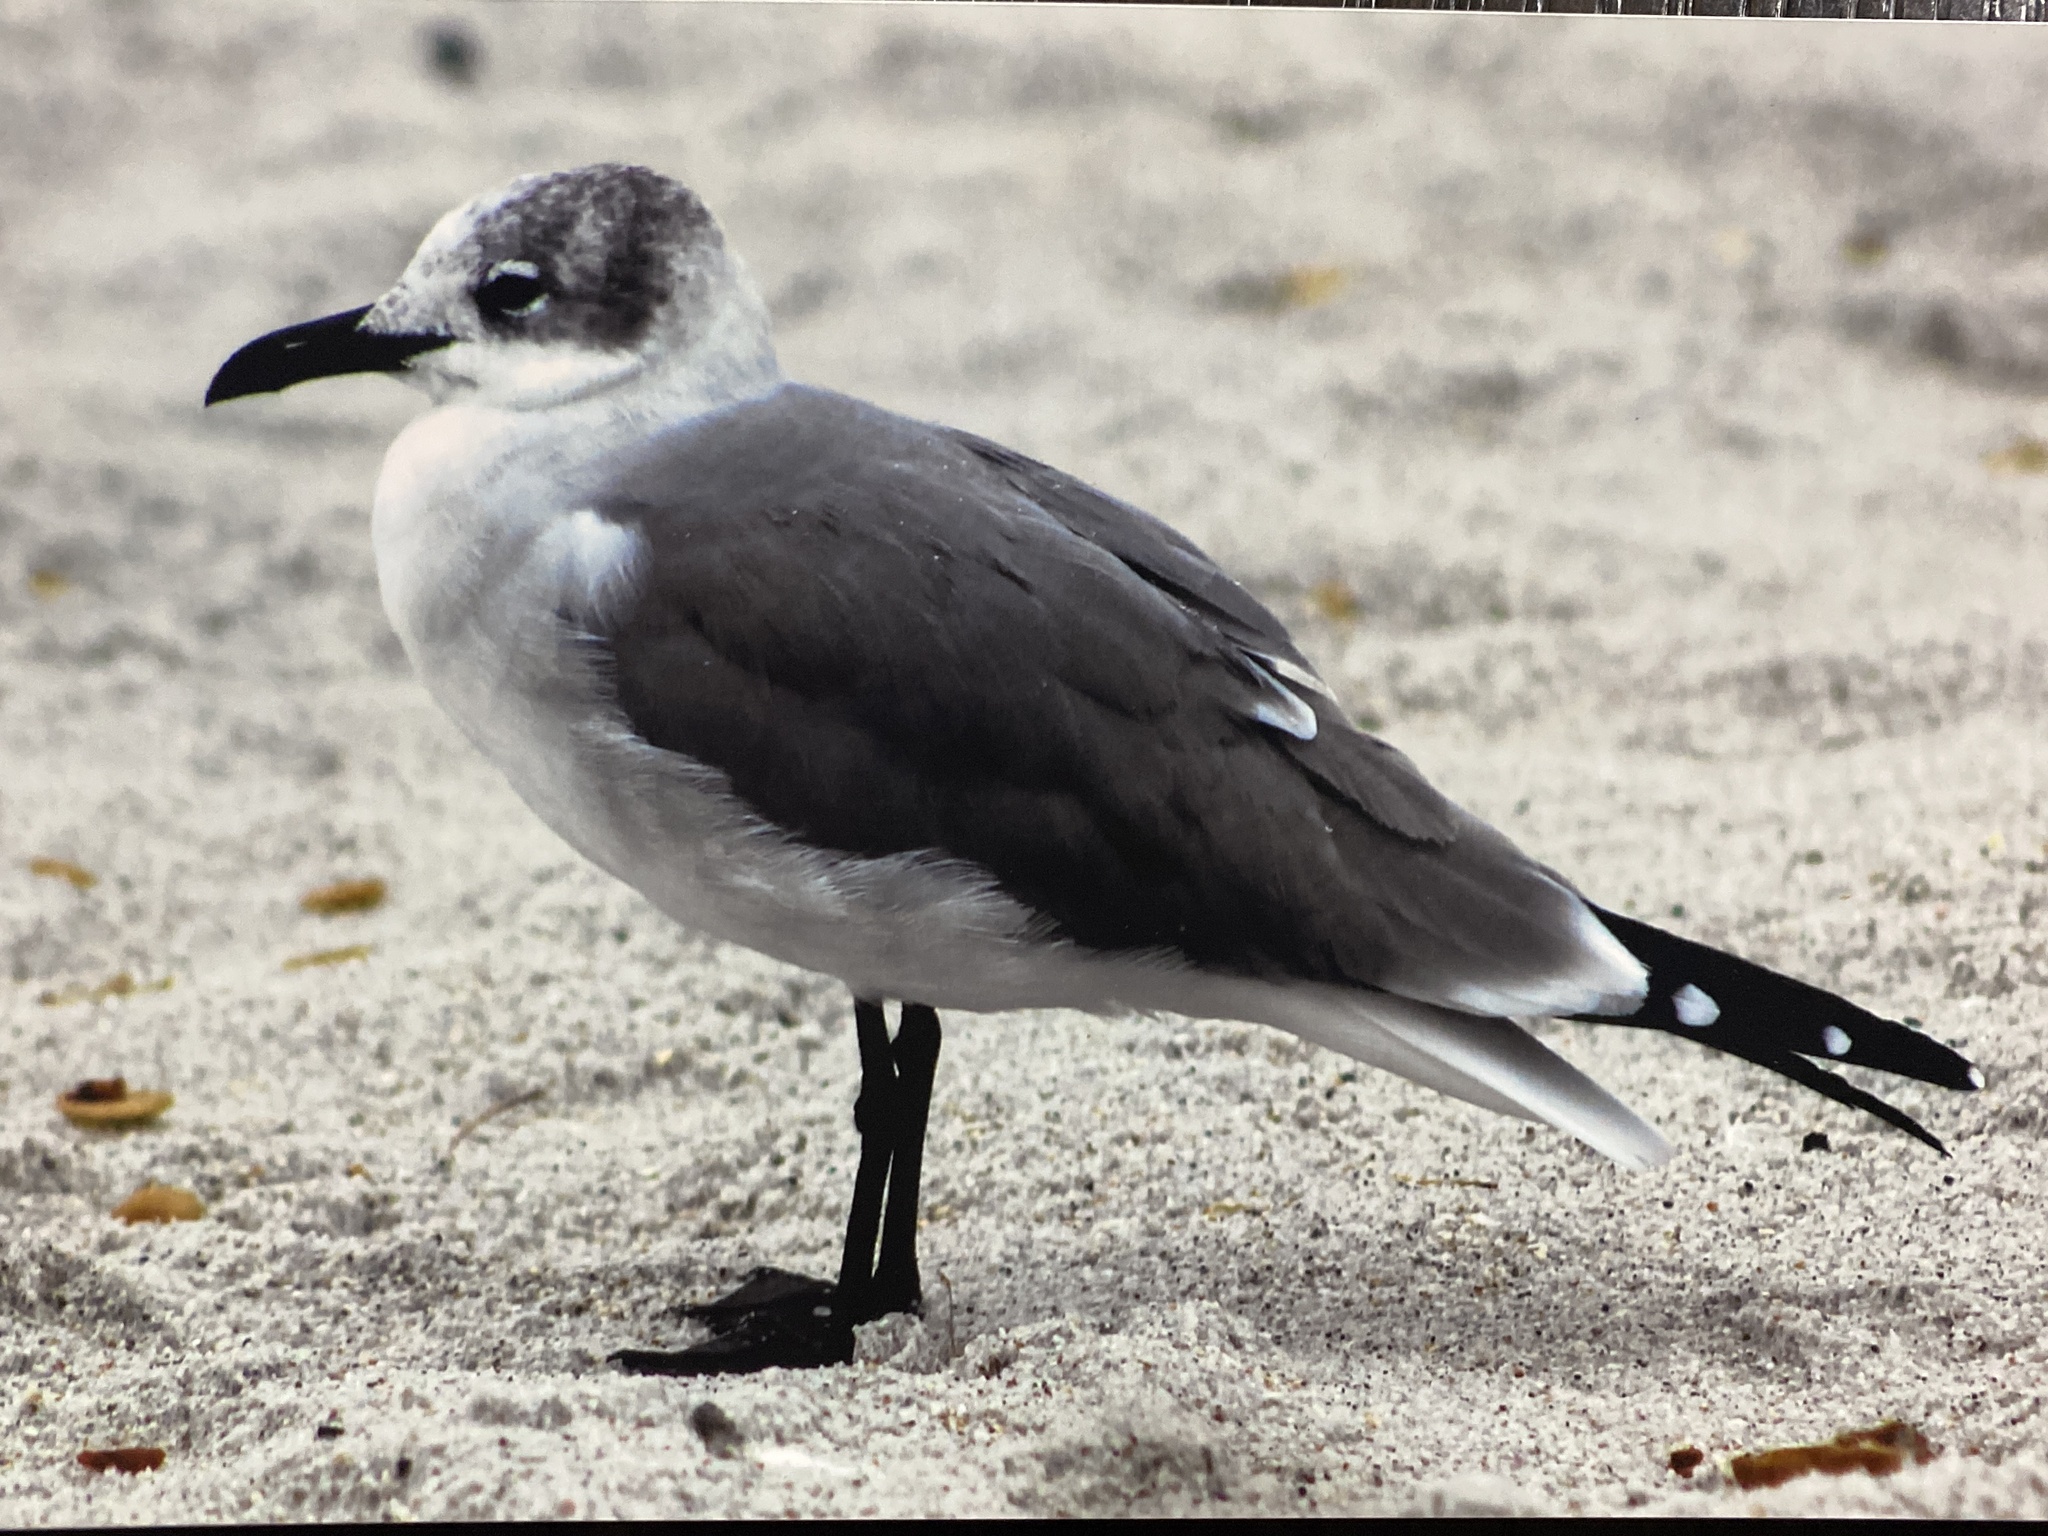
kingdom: Animalia
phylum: Chordata
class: Aves
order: Charadriiformes
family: Laridae
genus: Leucophaeus
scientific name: Leucophaeus atricilla
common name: Laughing gull
